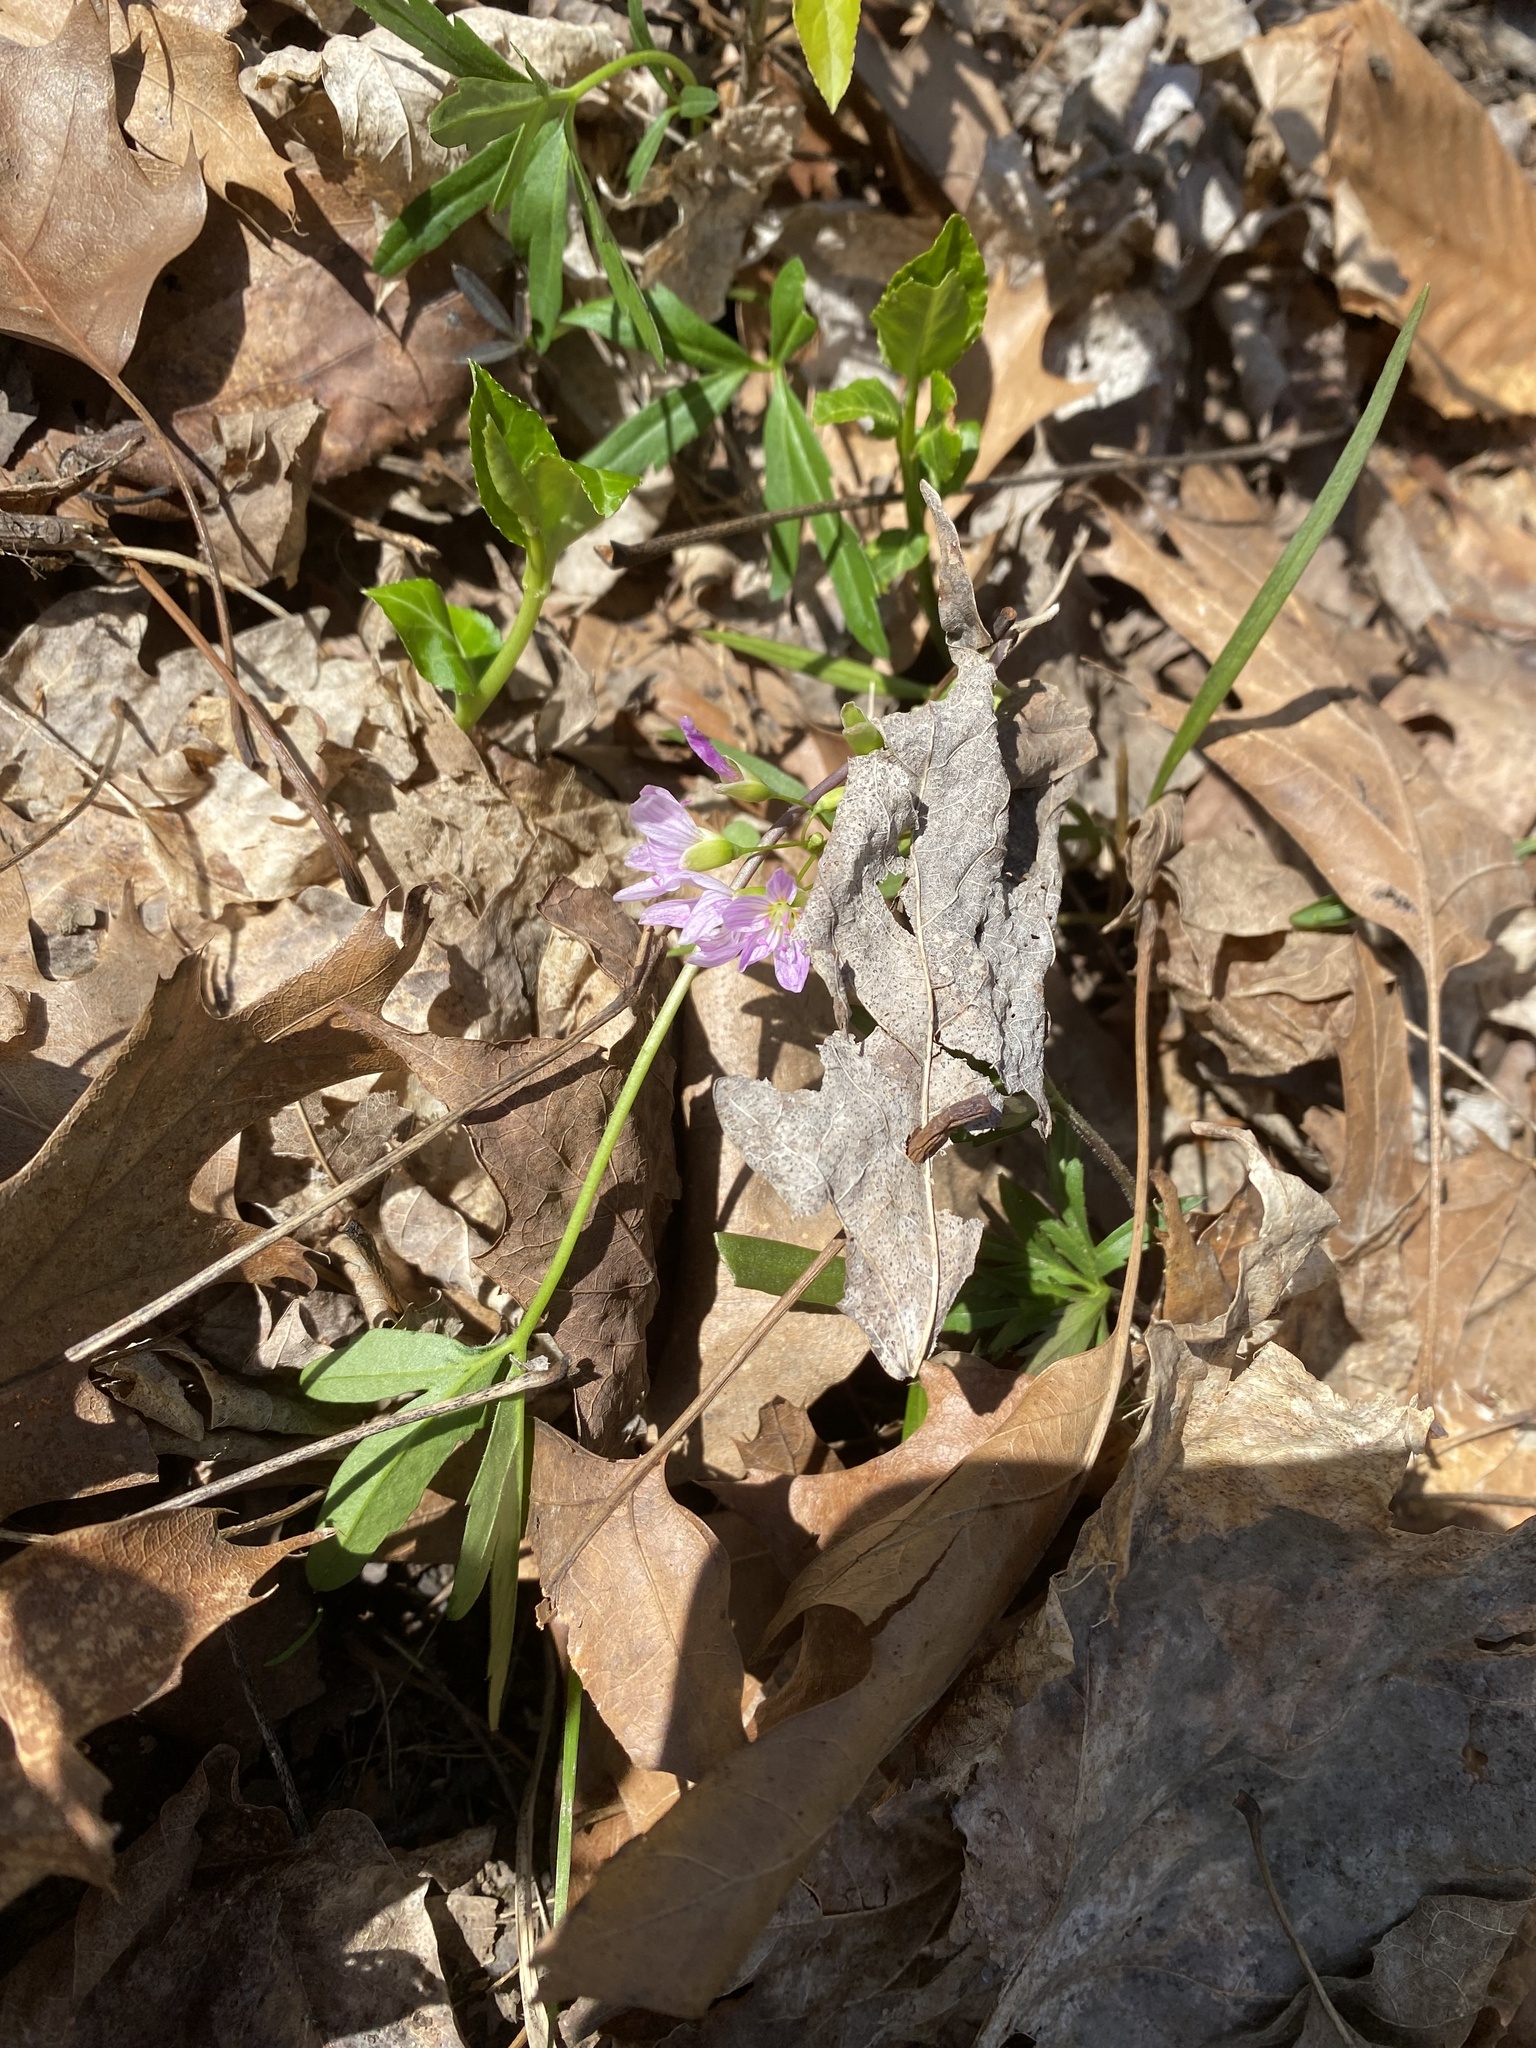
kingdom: Plantae
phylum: Tracheophyta
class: Magnoliopsida
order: Caryophyllales
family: Montiaceae
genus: Claytonia
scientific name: Claytonia virginica
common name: Virginia springbeauty
